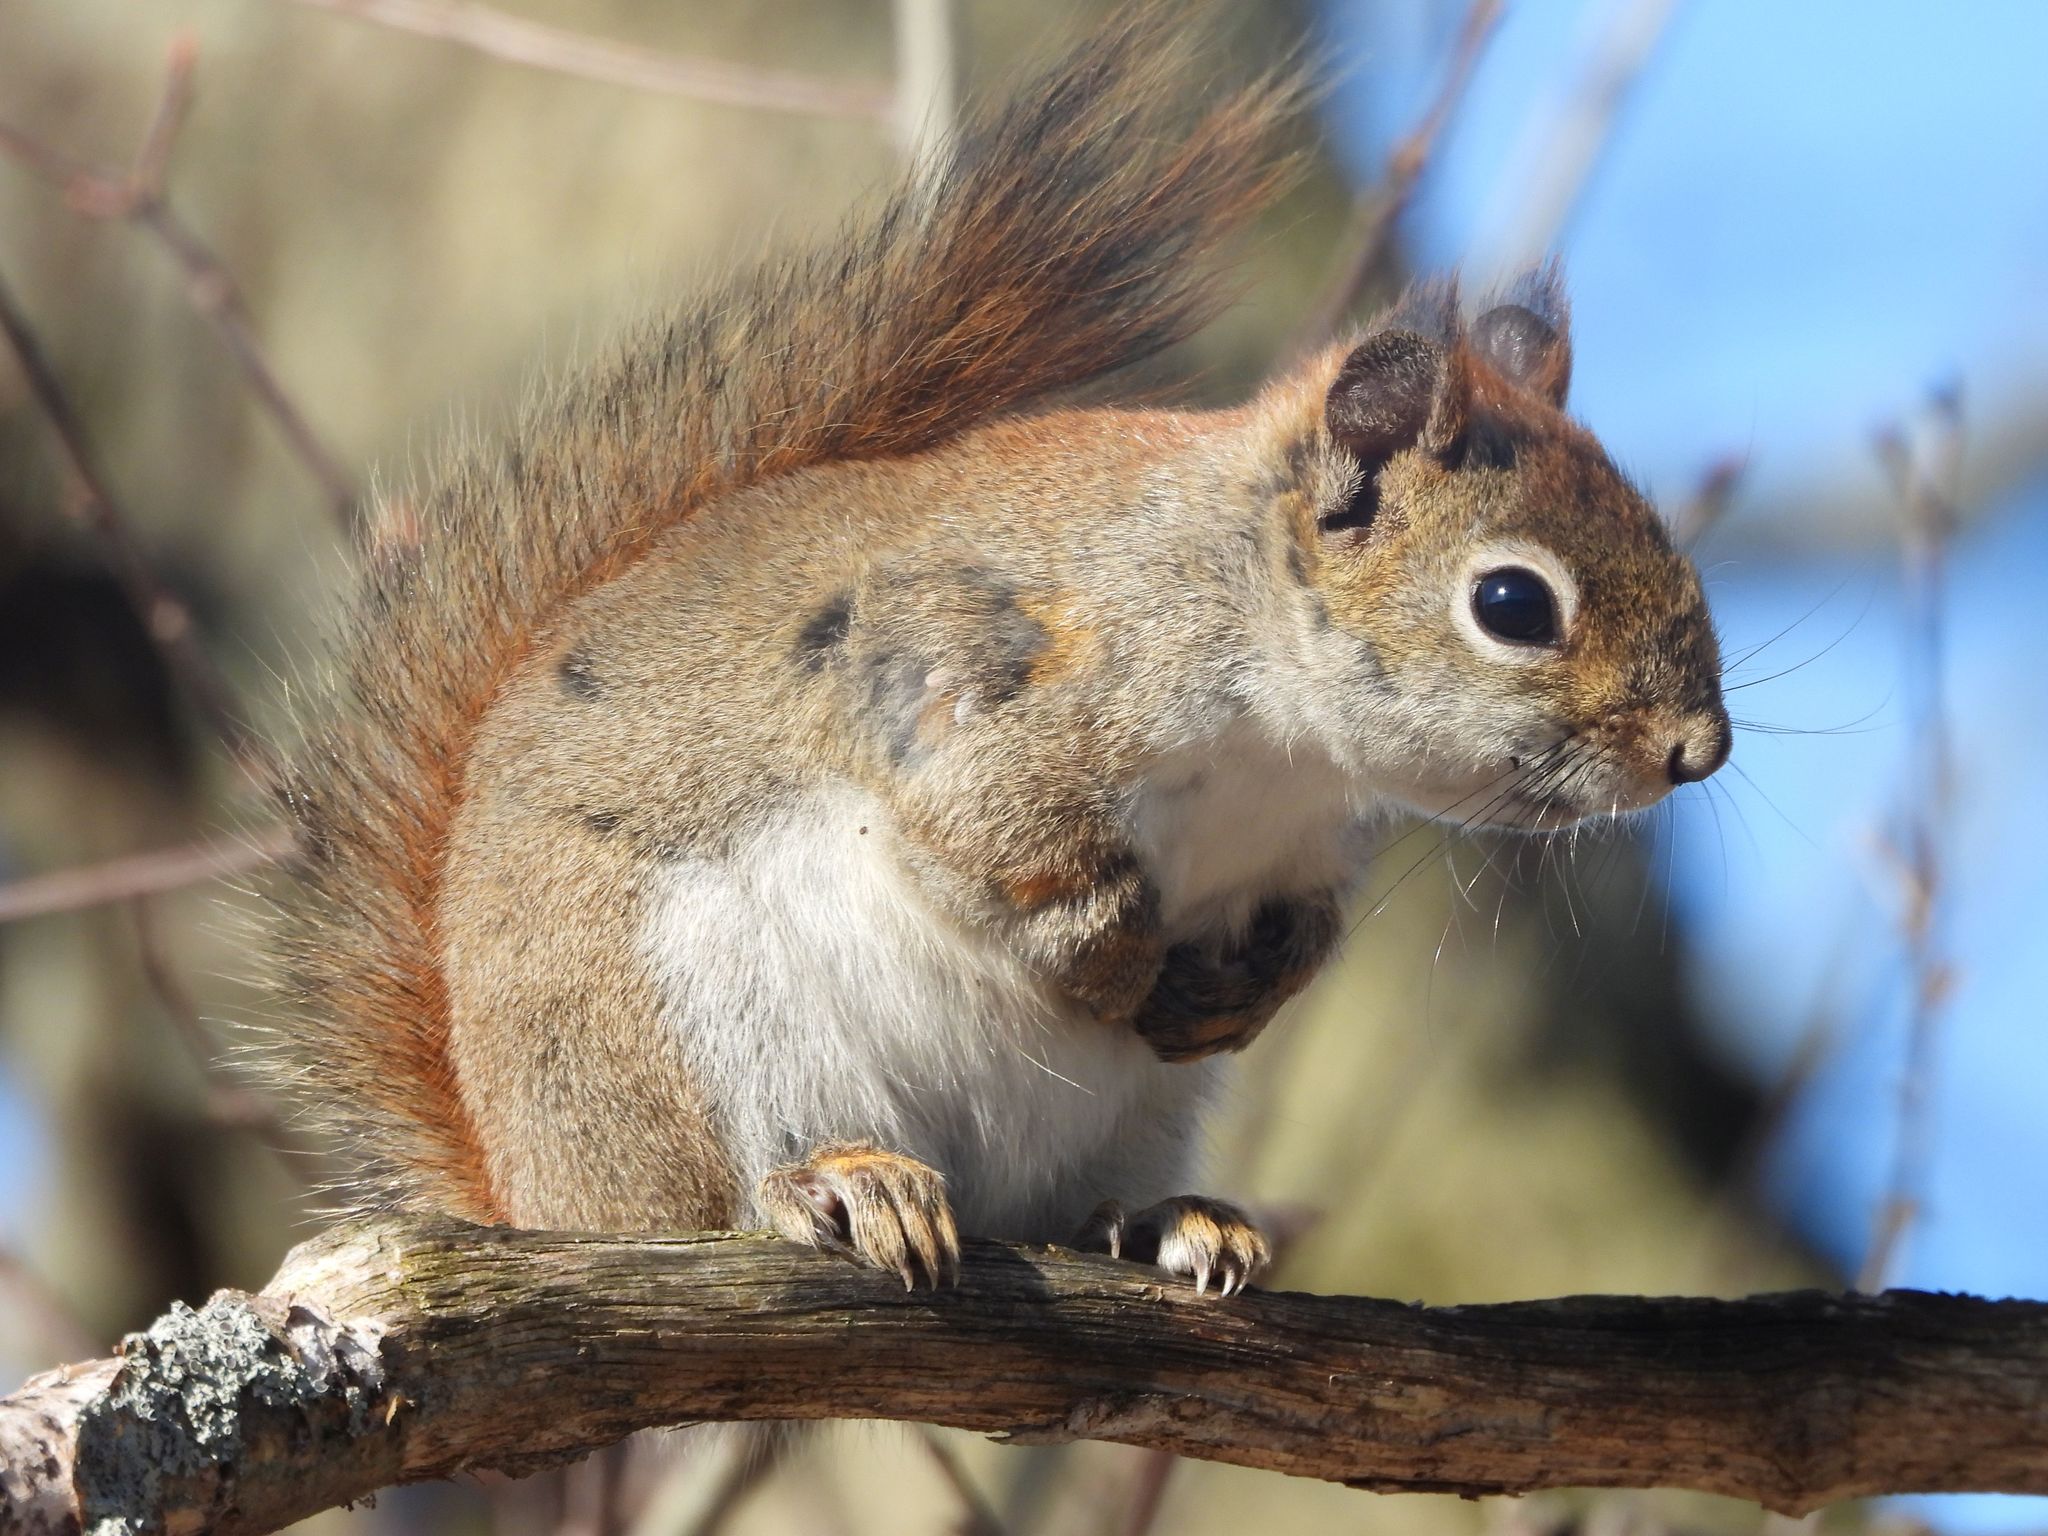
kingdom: Animalia
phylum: Chordata
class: Mammalia
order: Rodentia
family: Sciuridae
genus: Tamiasciurus
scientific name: Tamiasciurus hudsonicus
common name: Red squirrel
